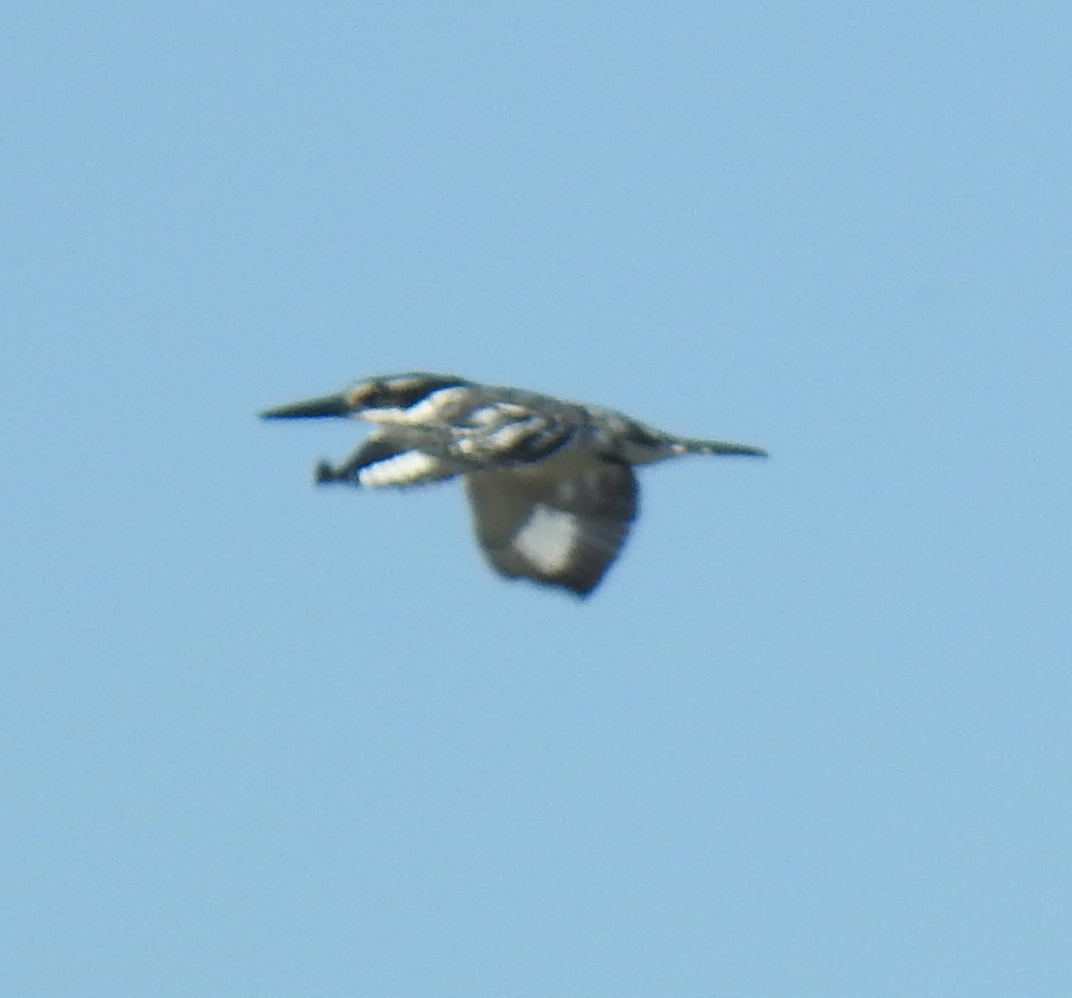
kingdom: Animalia
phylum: Chordata
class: Aves
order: Coraciiformes
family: Alcedinidae
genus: Ceryle
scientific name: Ceryle rudis
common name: Pied kingfisher
